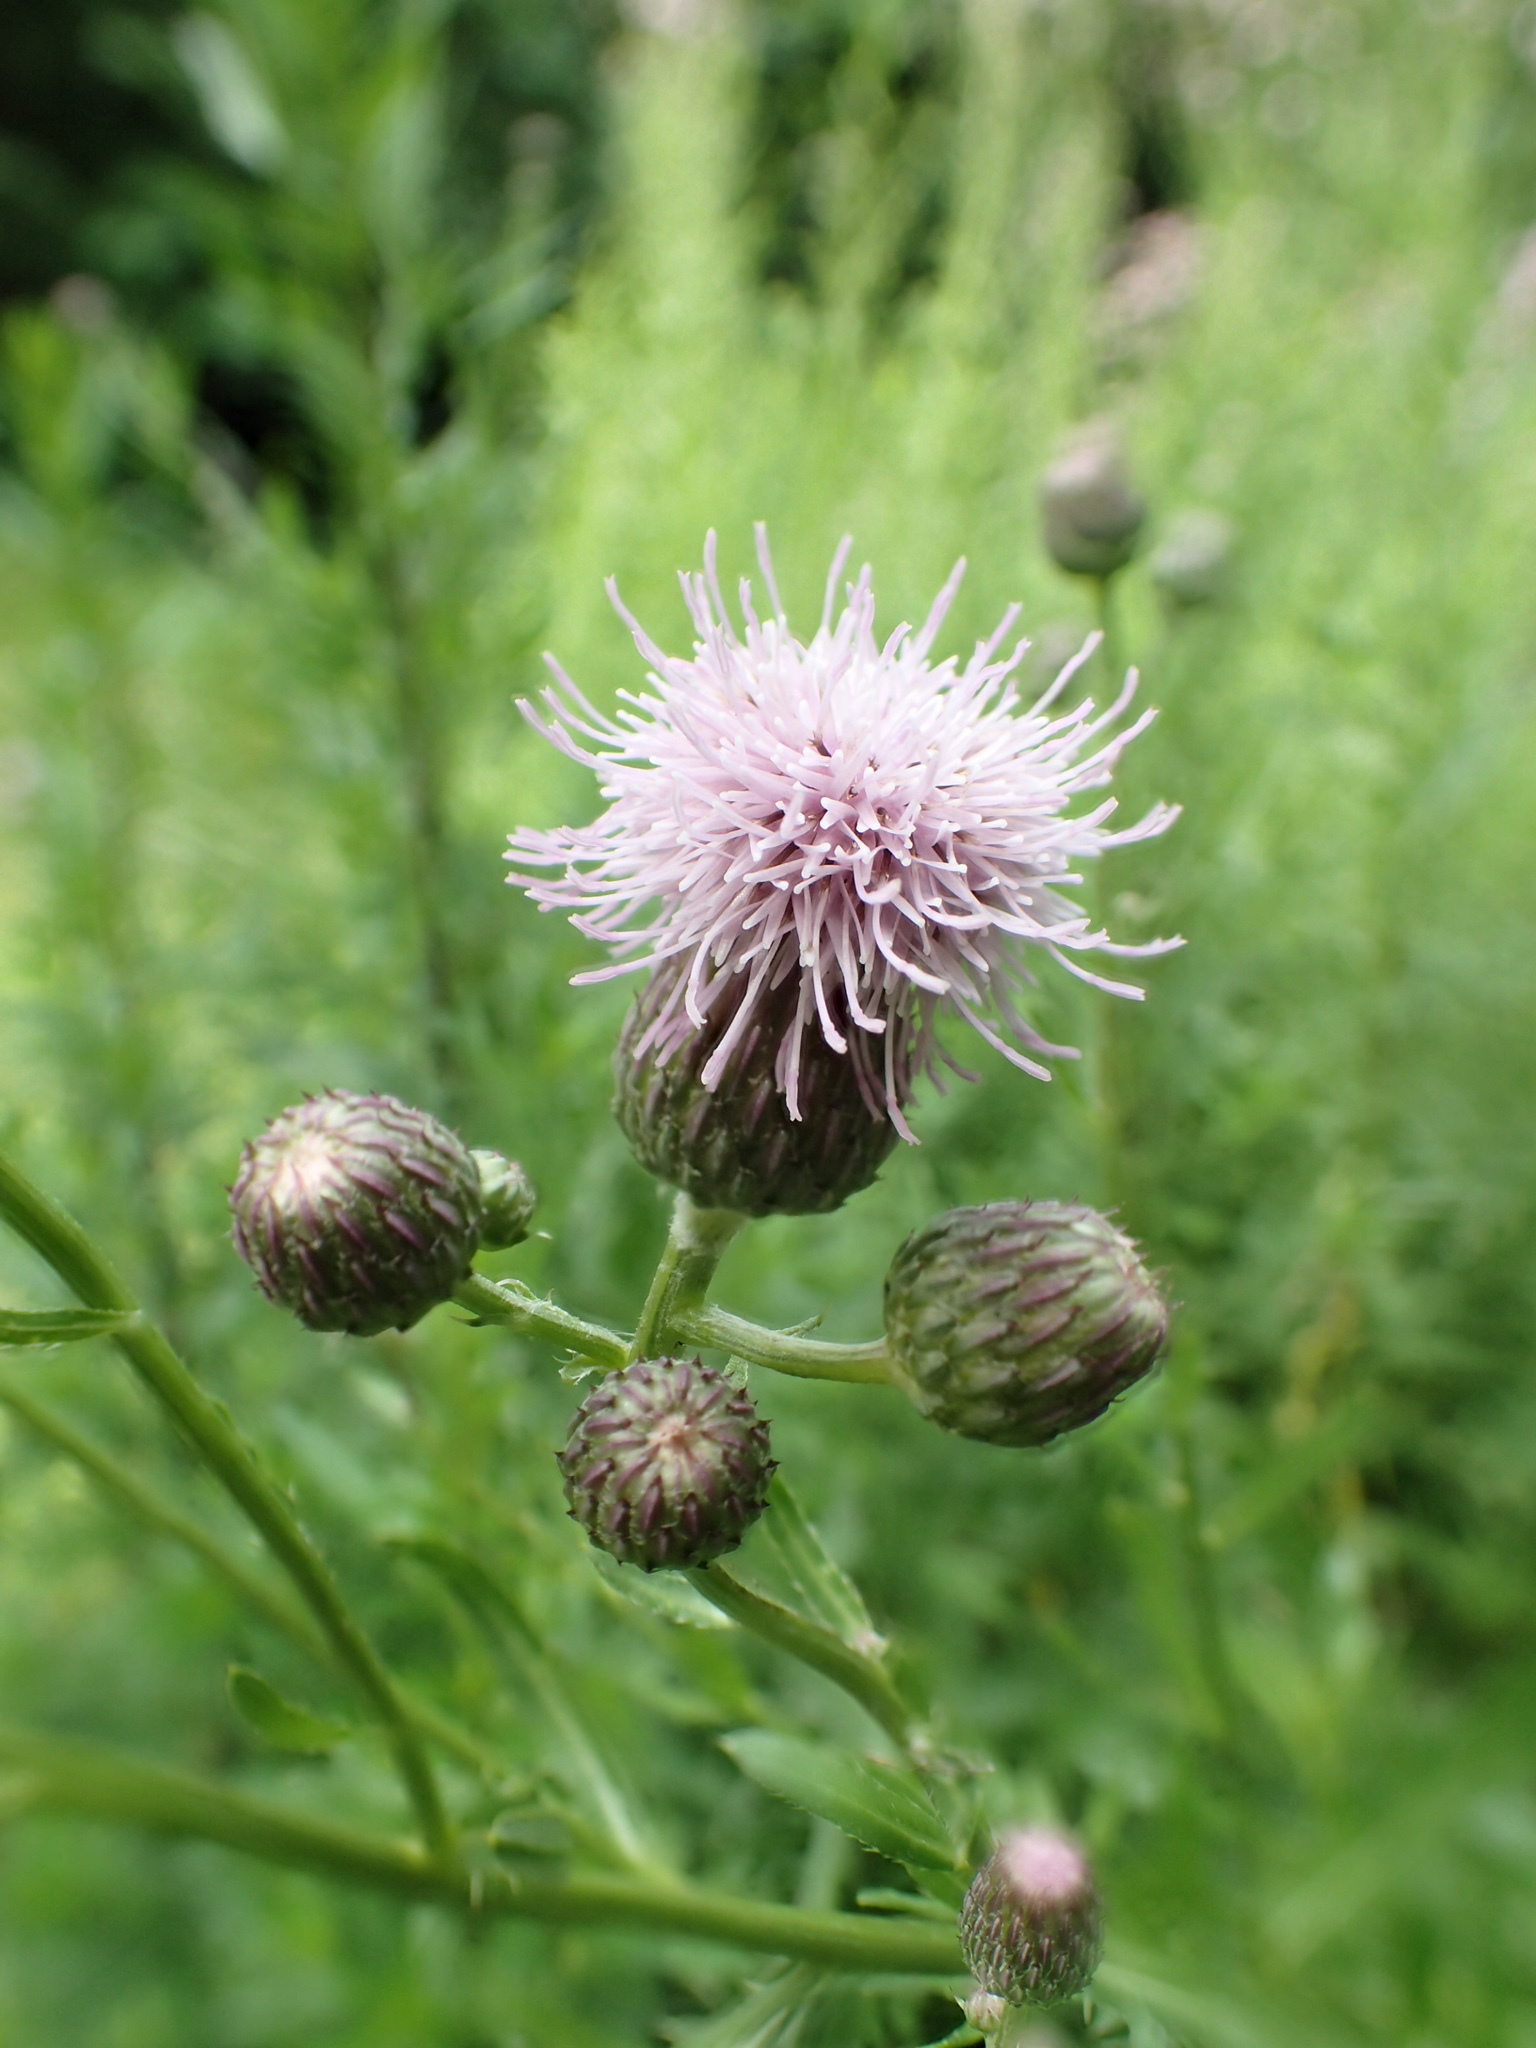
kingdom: Plantae
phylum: Tracheophyta
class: Magnoliopsida
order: Asterales
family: Asteraceae
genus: Cirsium
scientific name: Cirsium arvense
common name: Creeping thistle
